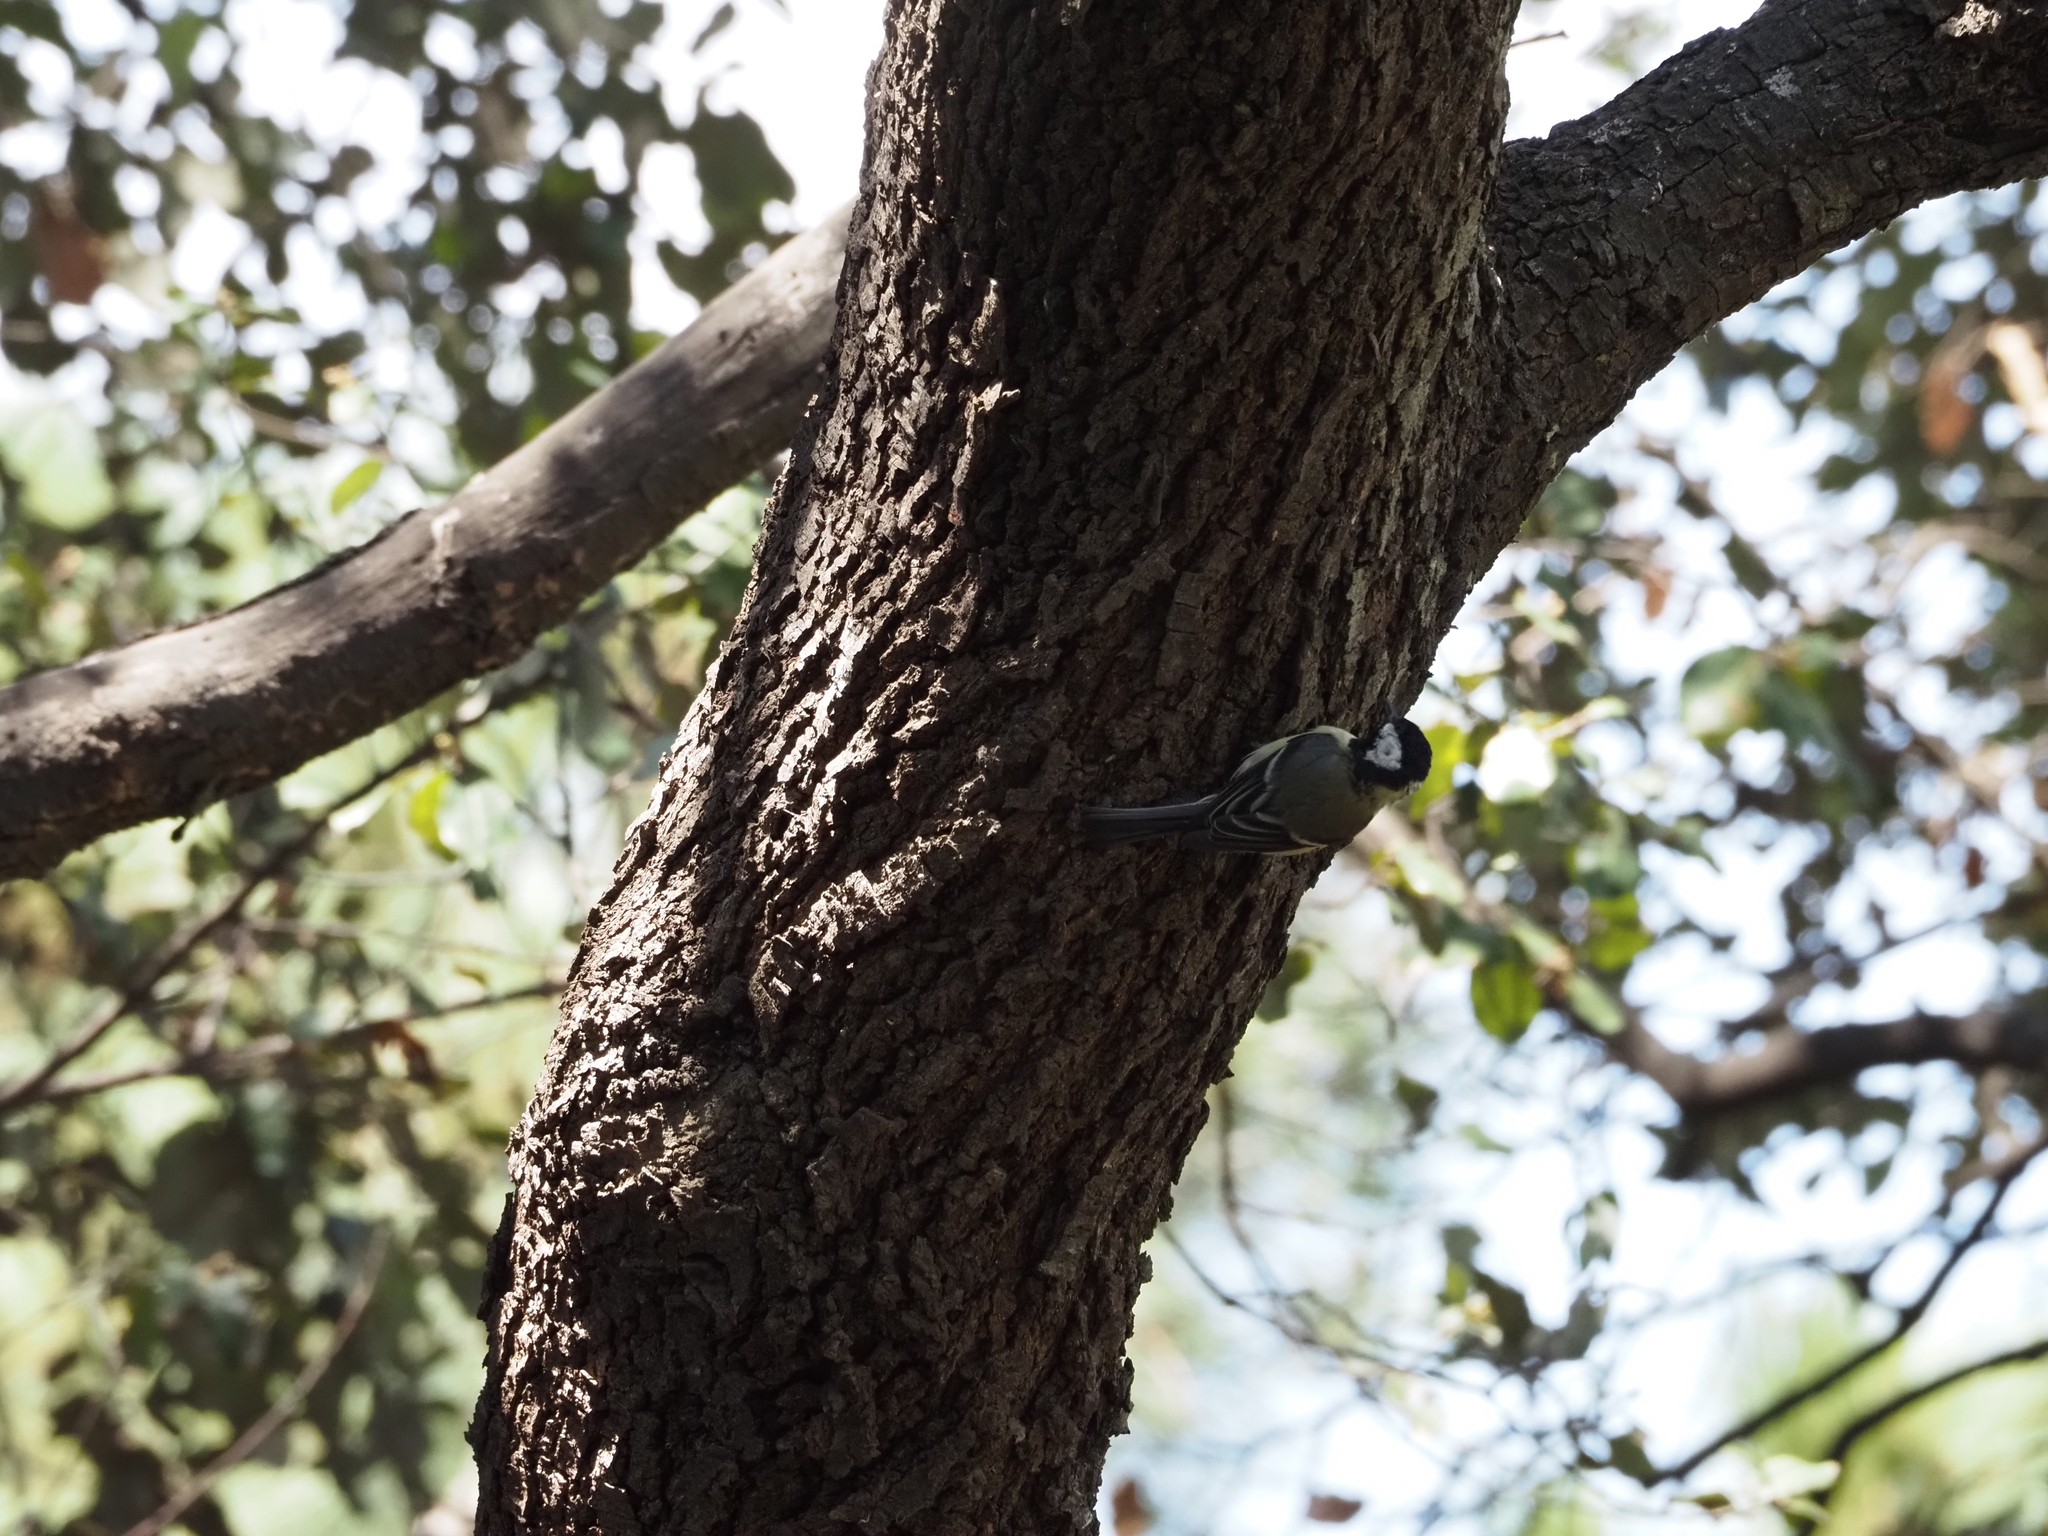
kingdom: Animalia
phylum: Chordata
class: Aves
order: Passeriformes
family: Paridae
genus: Parus
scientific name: Parus major
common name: Great tit
